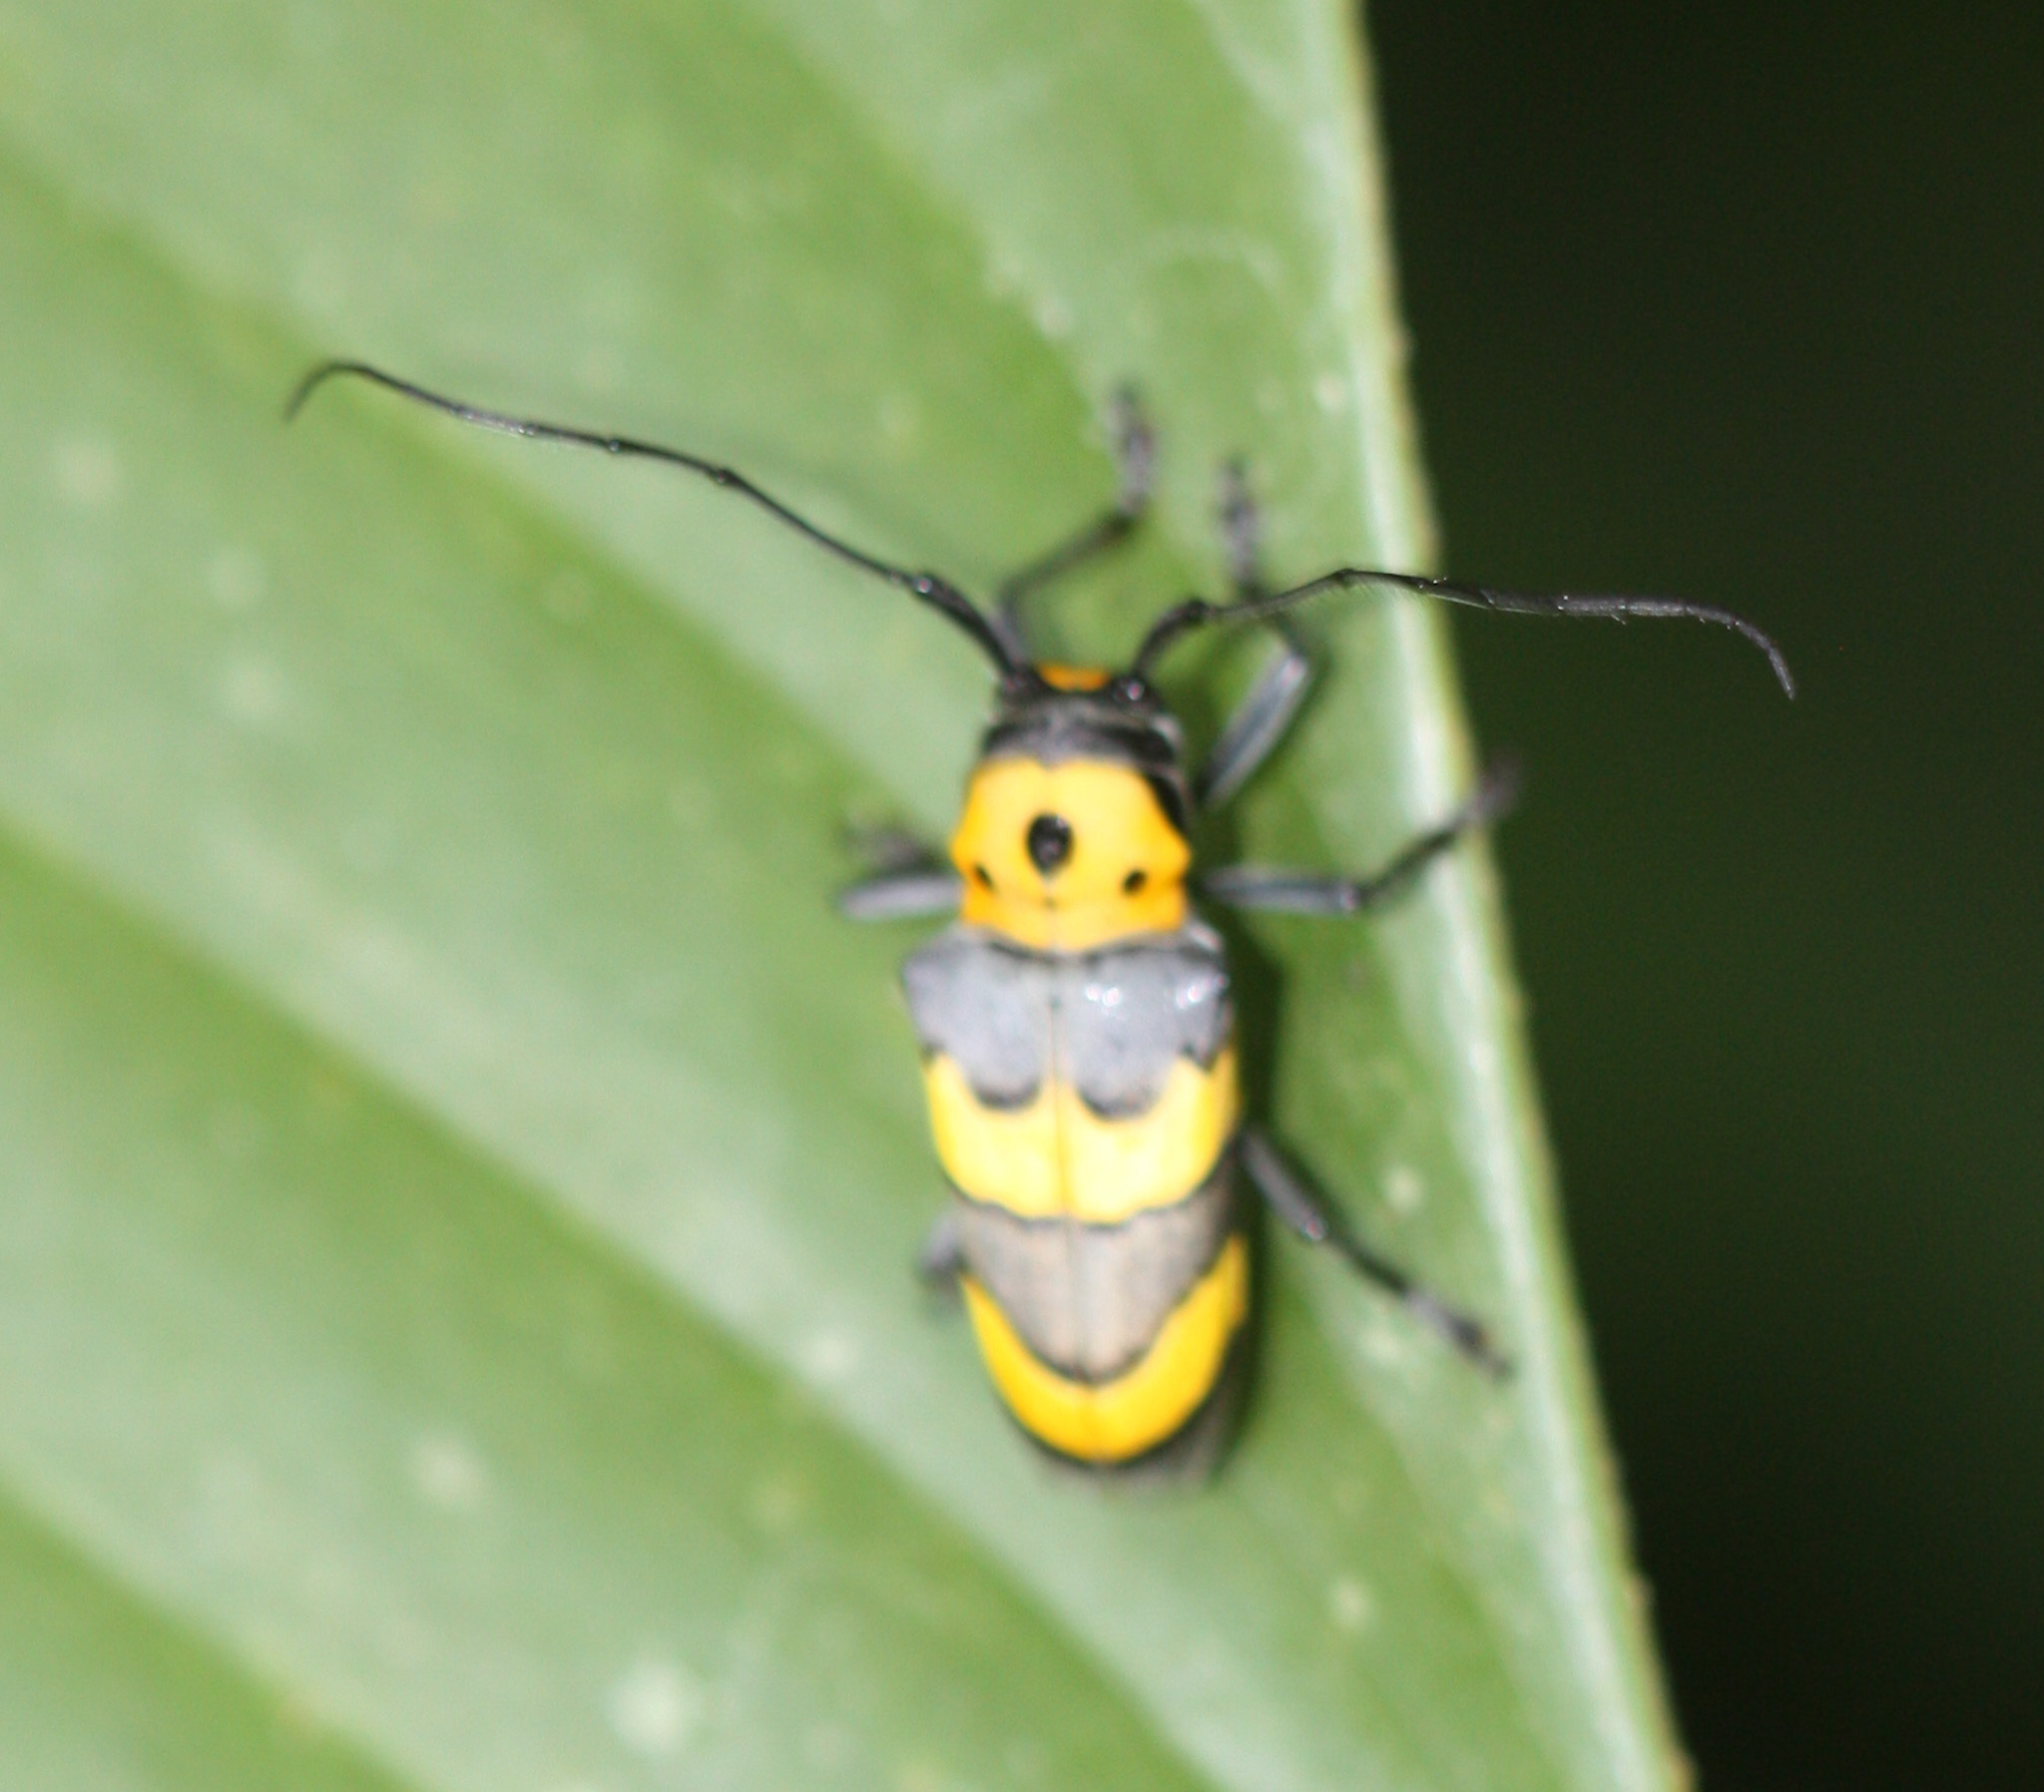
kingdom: Animalia
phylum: Arthropoda
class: Insecta
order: Coleoptera
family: Cerambycidae
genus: Oedudes
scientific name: Oedudes bifasciatus
